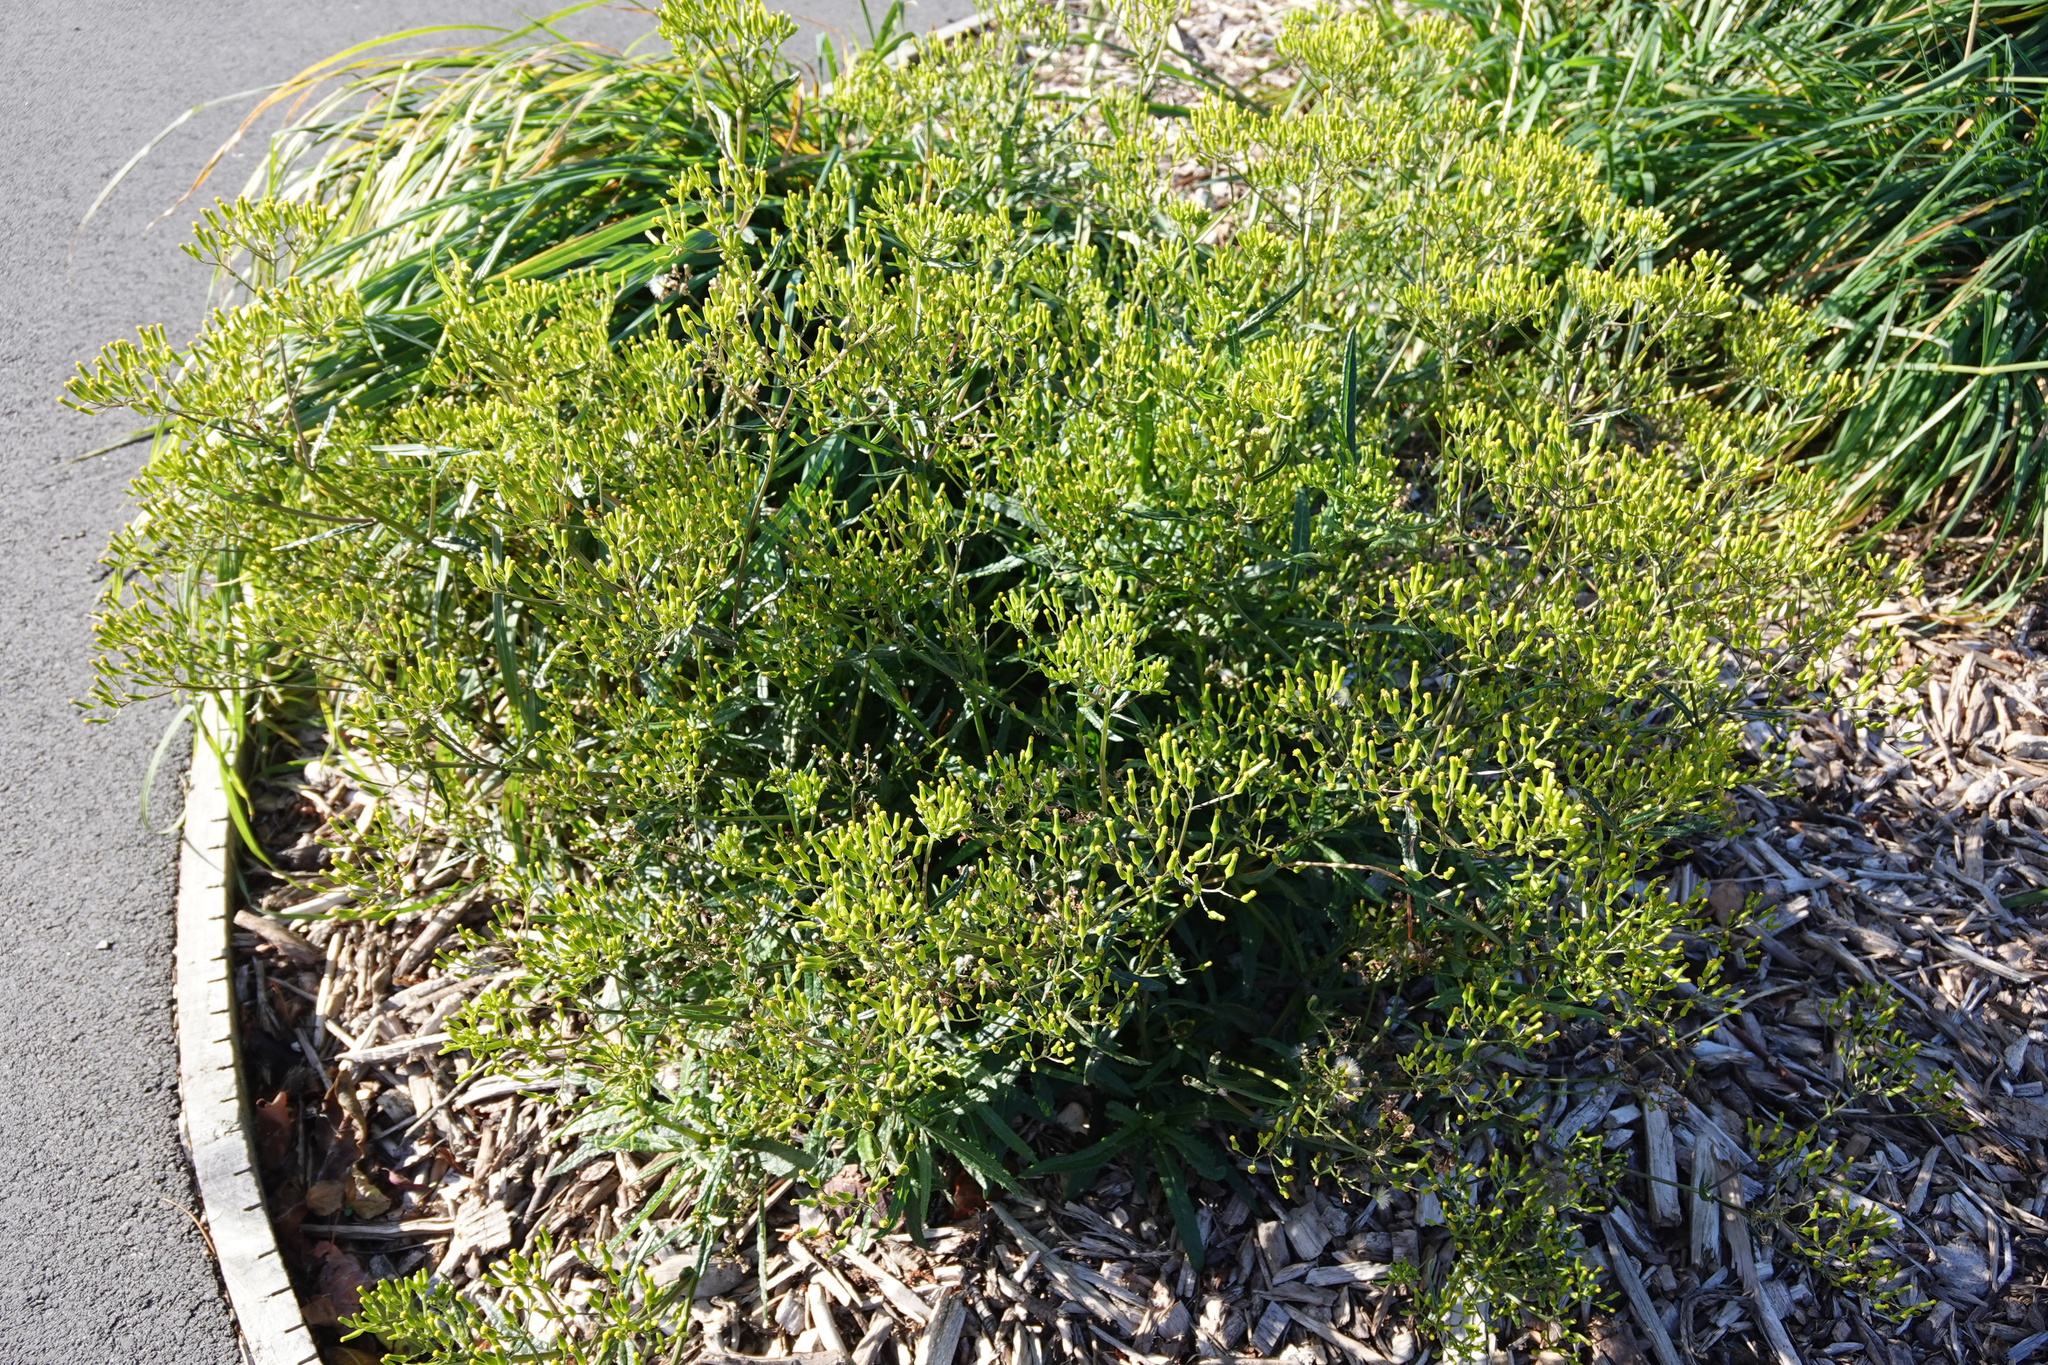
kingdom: Plantae
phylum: Tracheophyta
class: Magnoliopsida
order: Asterales
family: Asteraceae
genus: Senecio
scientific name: Senecio minimus
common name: Toothed fireweed
